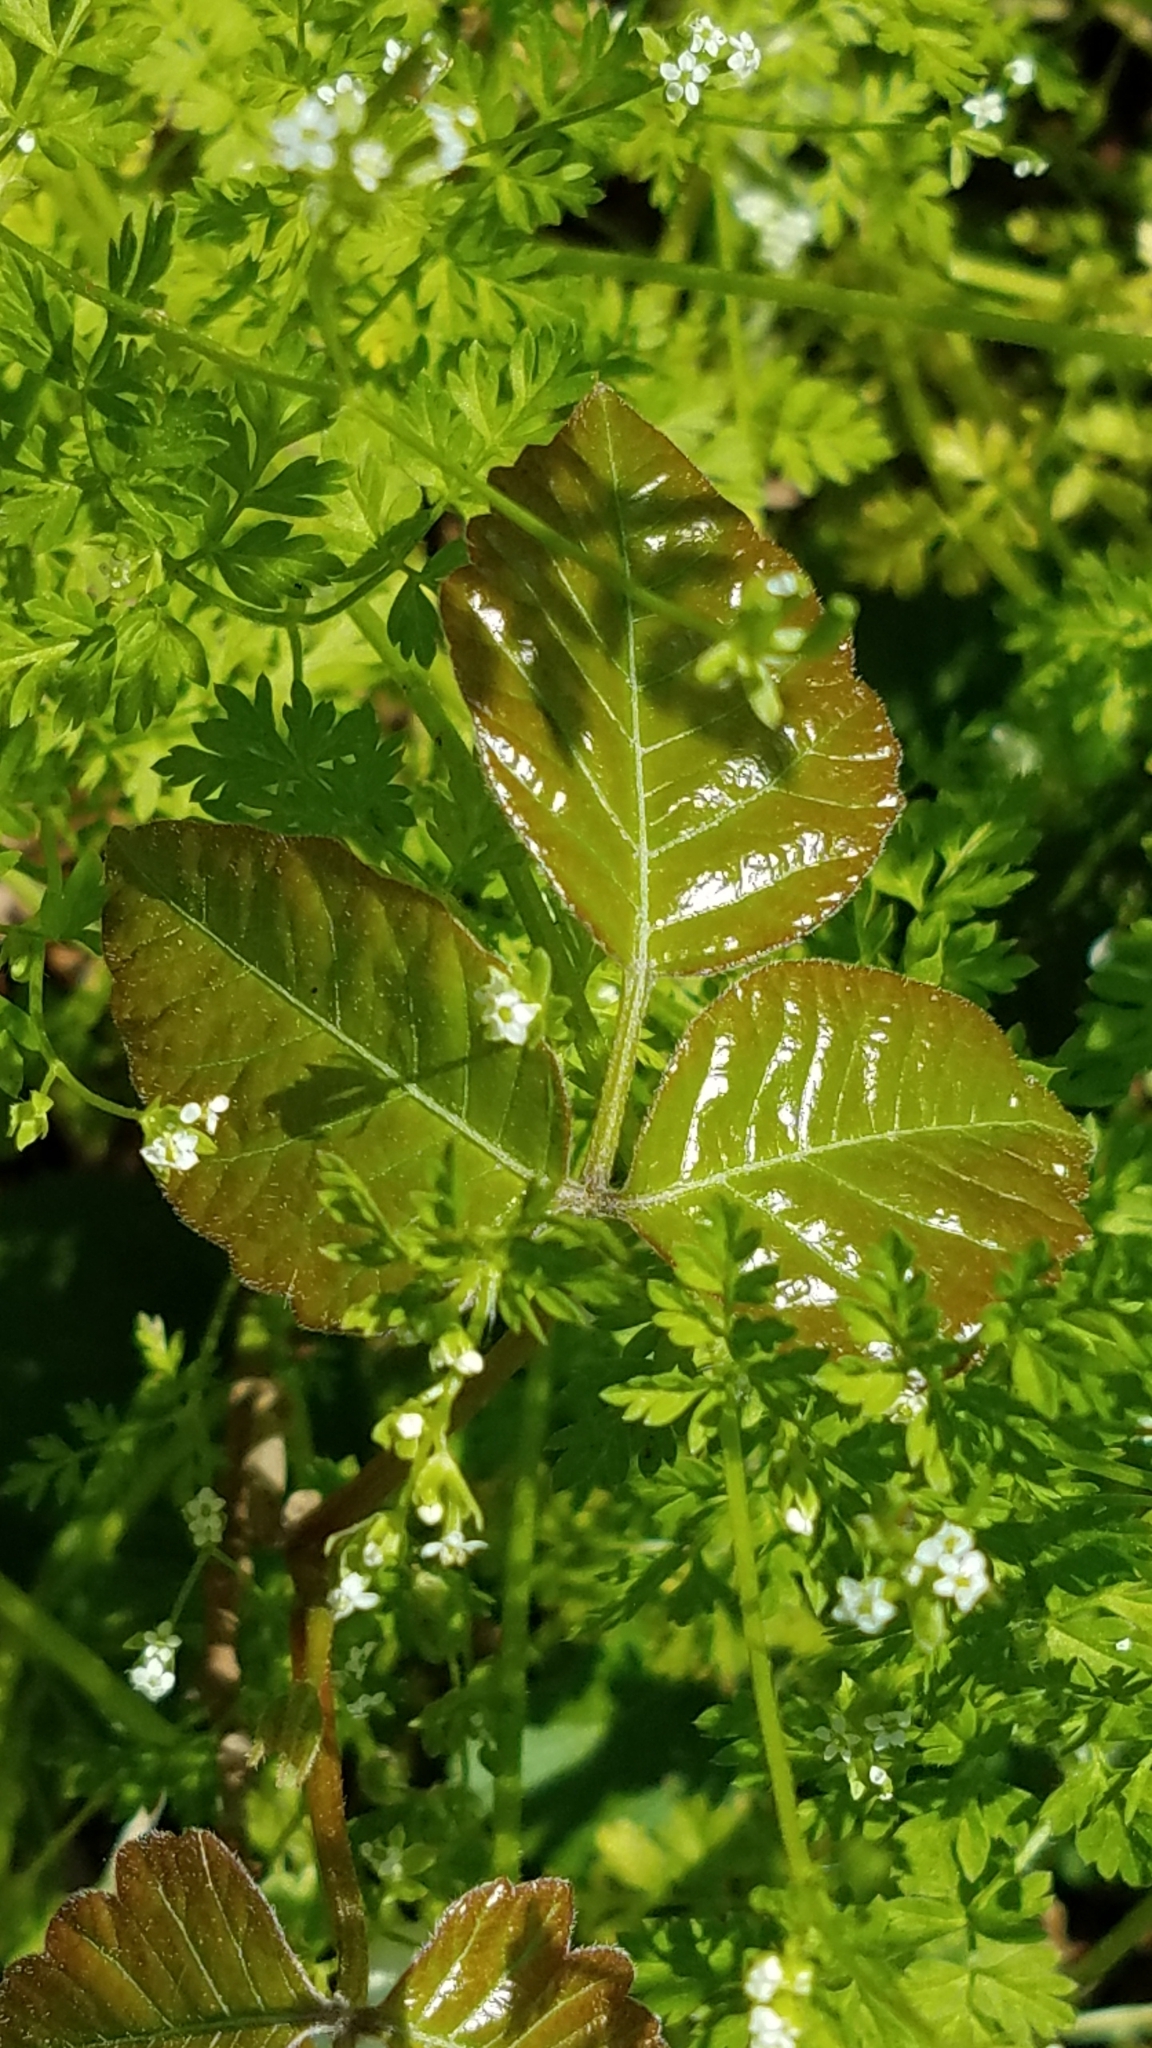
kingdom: Plantae
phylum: Tracheophyta
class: Magnoliopsida
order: Sapindales
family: Anacardiaceae
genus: Toxicodendron
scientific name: Toxicodendron radicans
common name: Poison ivy
